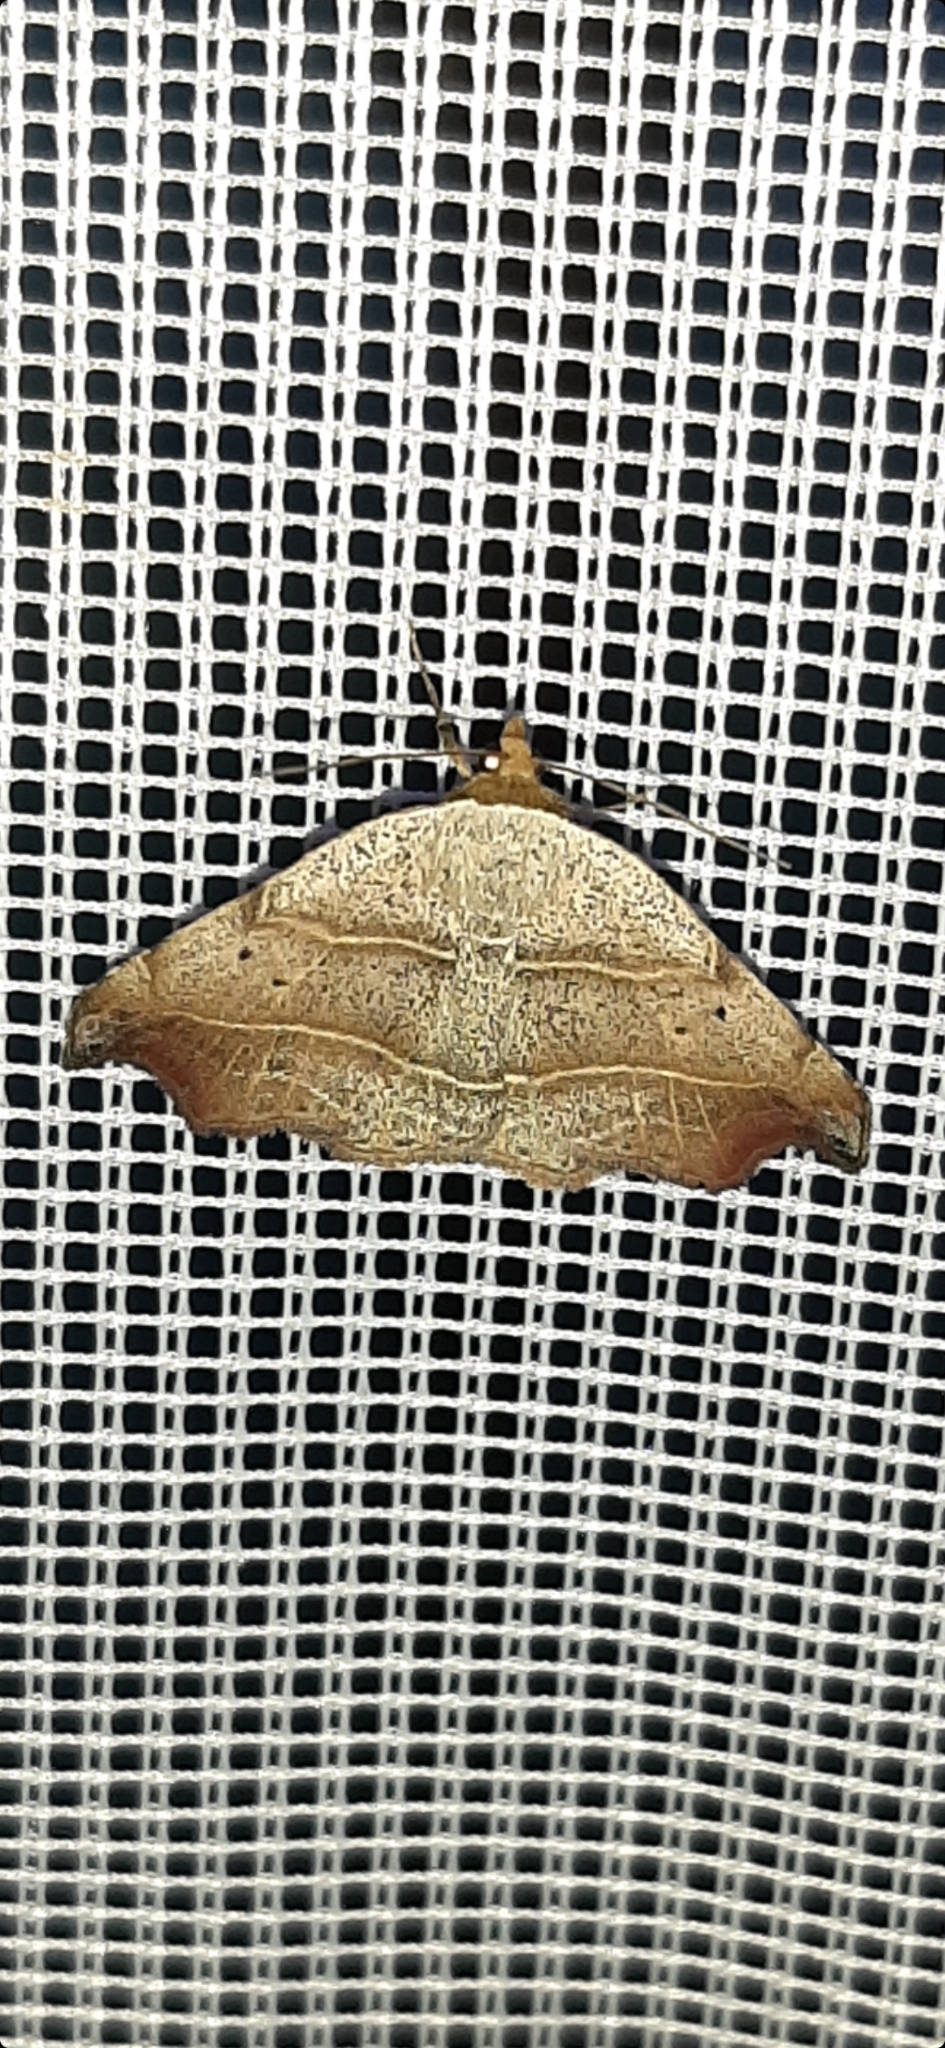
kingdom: Animalia
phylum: Arthropoda
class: Insecta
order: Lepidoptera
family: Erebidae
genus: Laspeyria
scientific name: Laspeyria flexula
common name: Beautiful hook-tip
